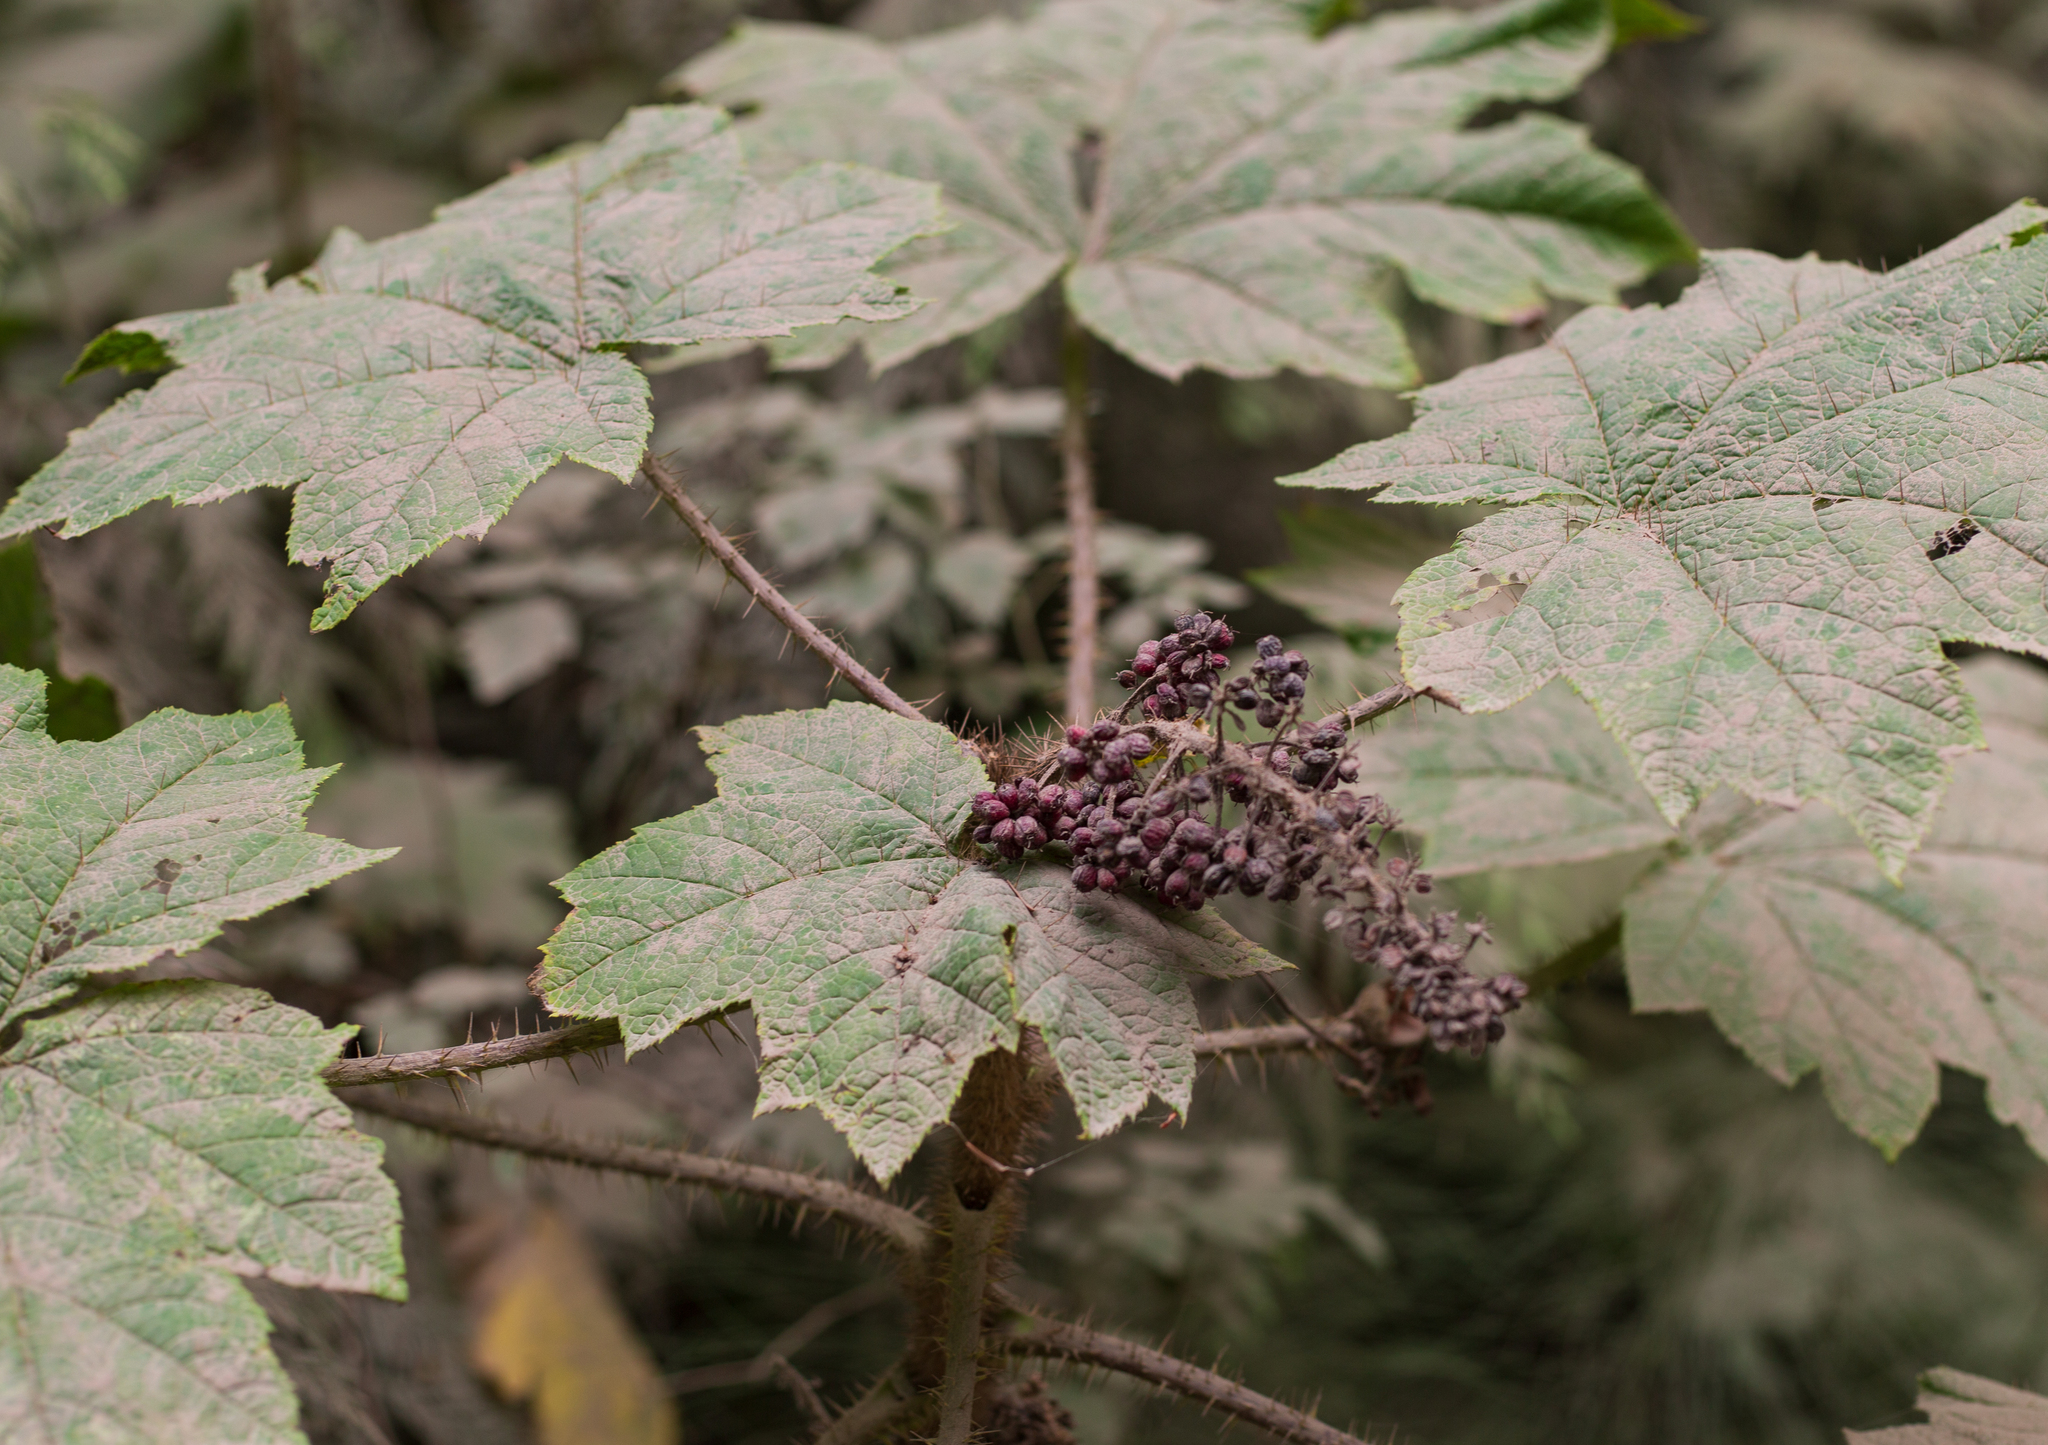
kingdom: Plantae
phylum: Tracheophyta
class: Magnoliopsida
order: Apiales
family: Araliaceae
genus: Oplopanax
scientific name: Oplopanax horridus
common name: Devil's walking-stick
